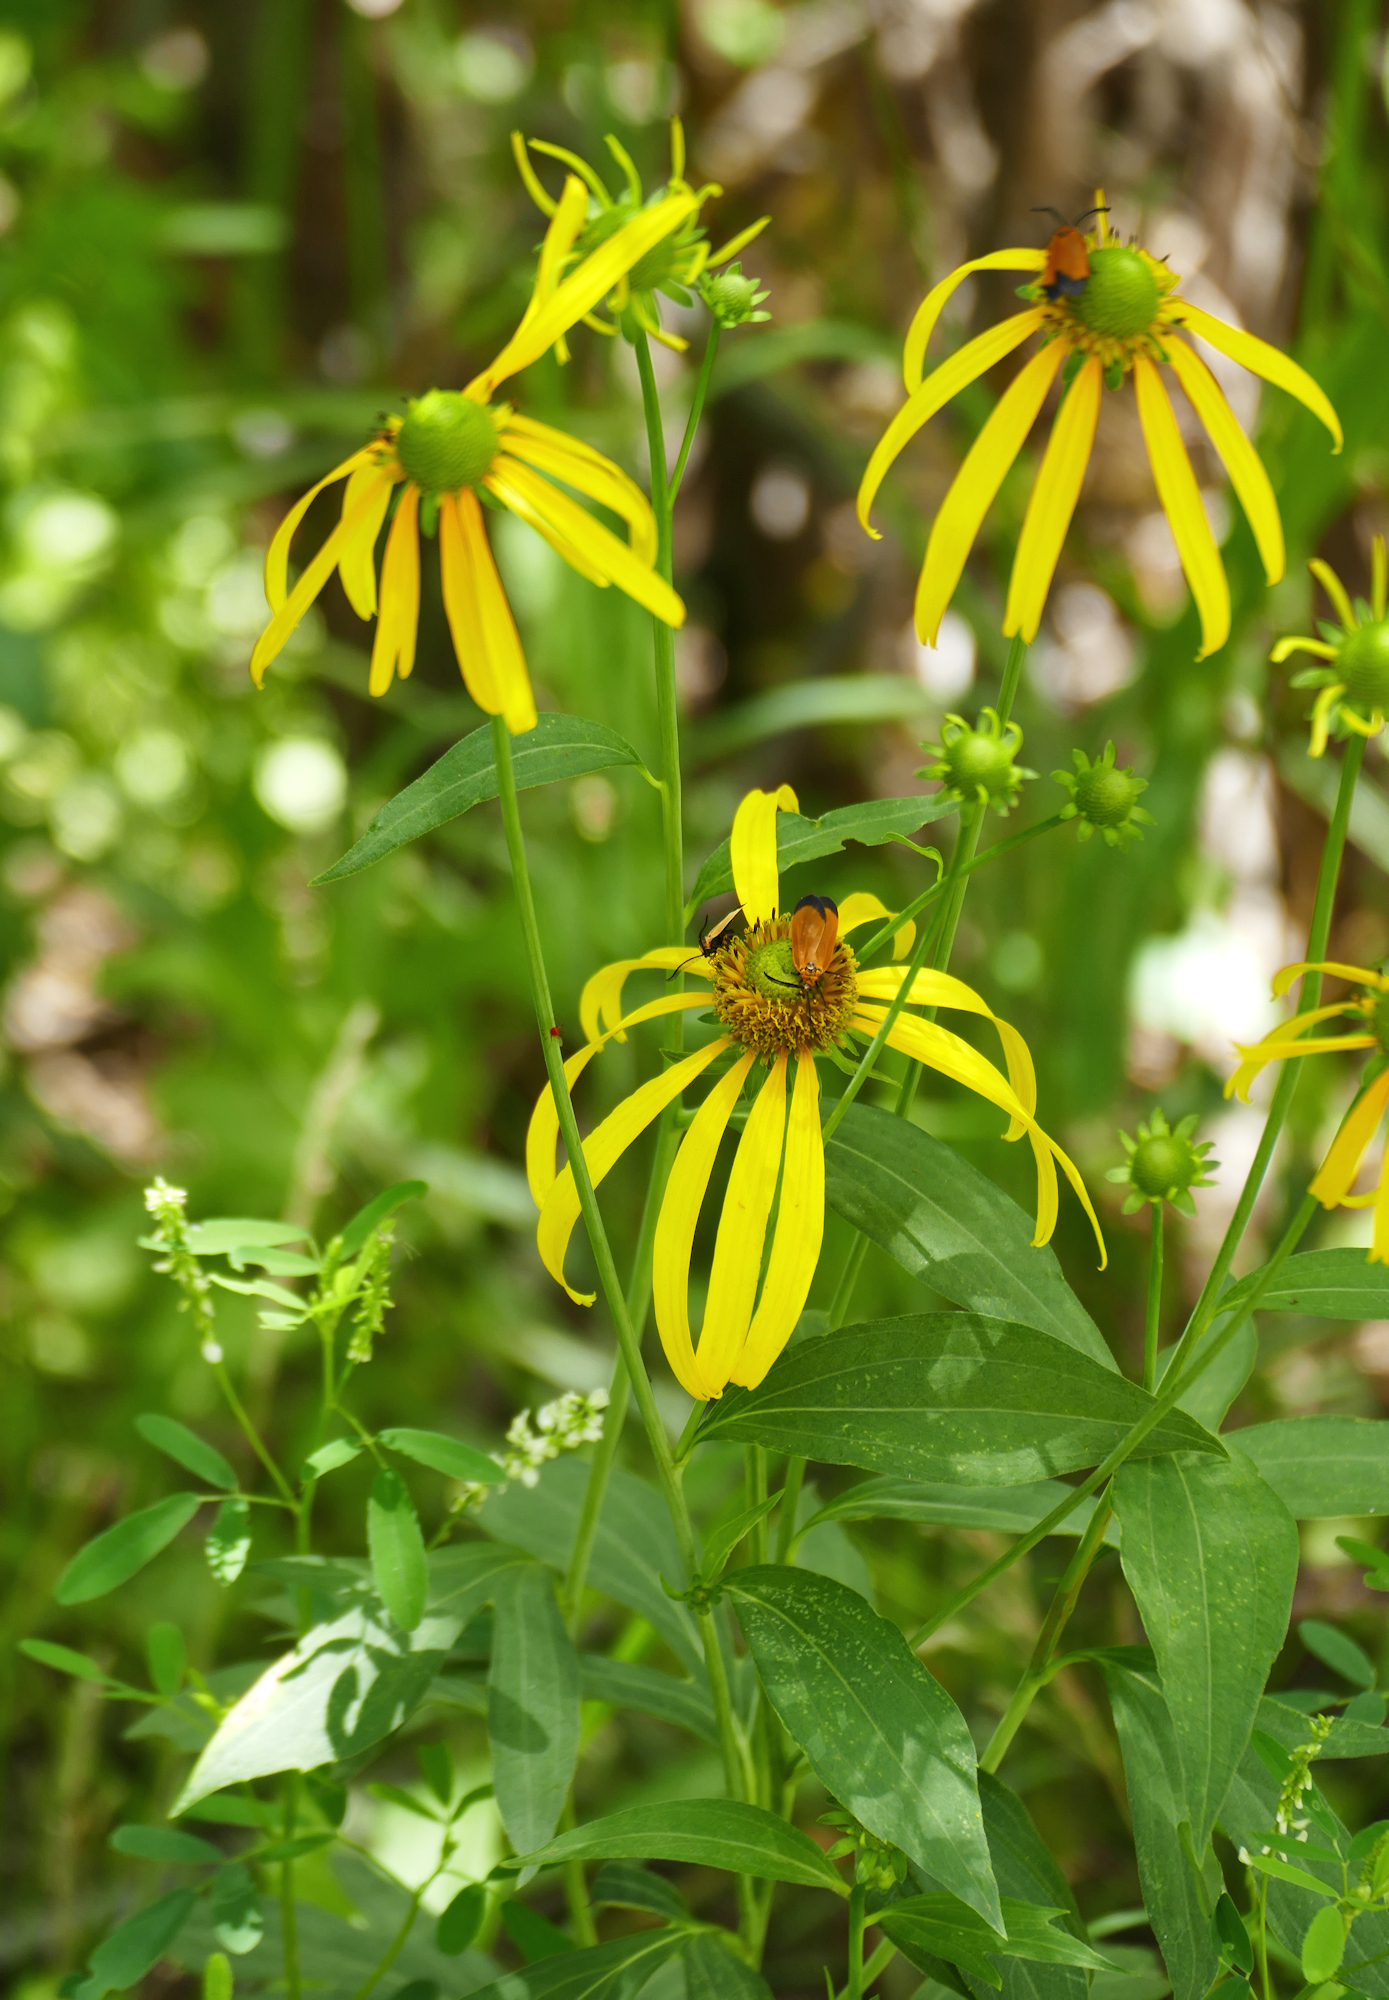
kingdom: Plantae
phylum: Tracheophyta
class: Magnoliopsida
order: Asterales
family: Asteraceae
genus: Rudbeckia
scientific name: Rudbeckia laciniata
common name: Coneflower
